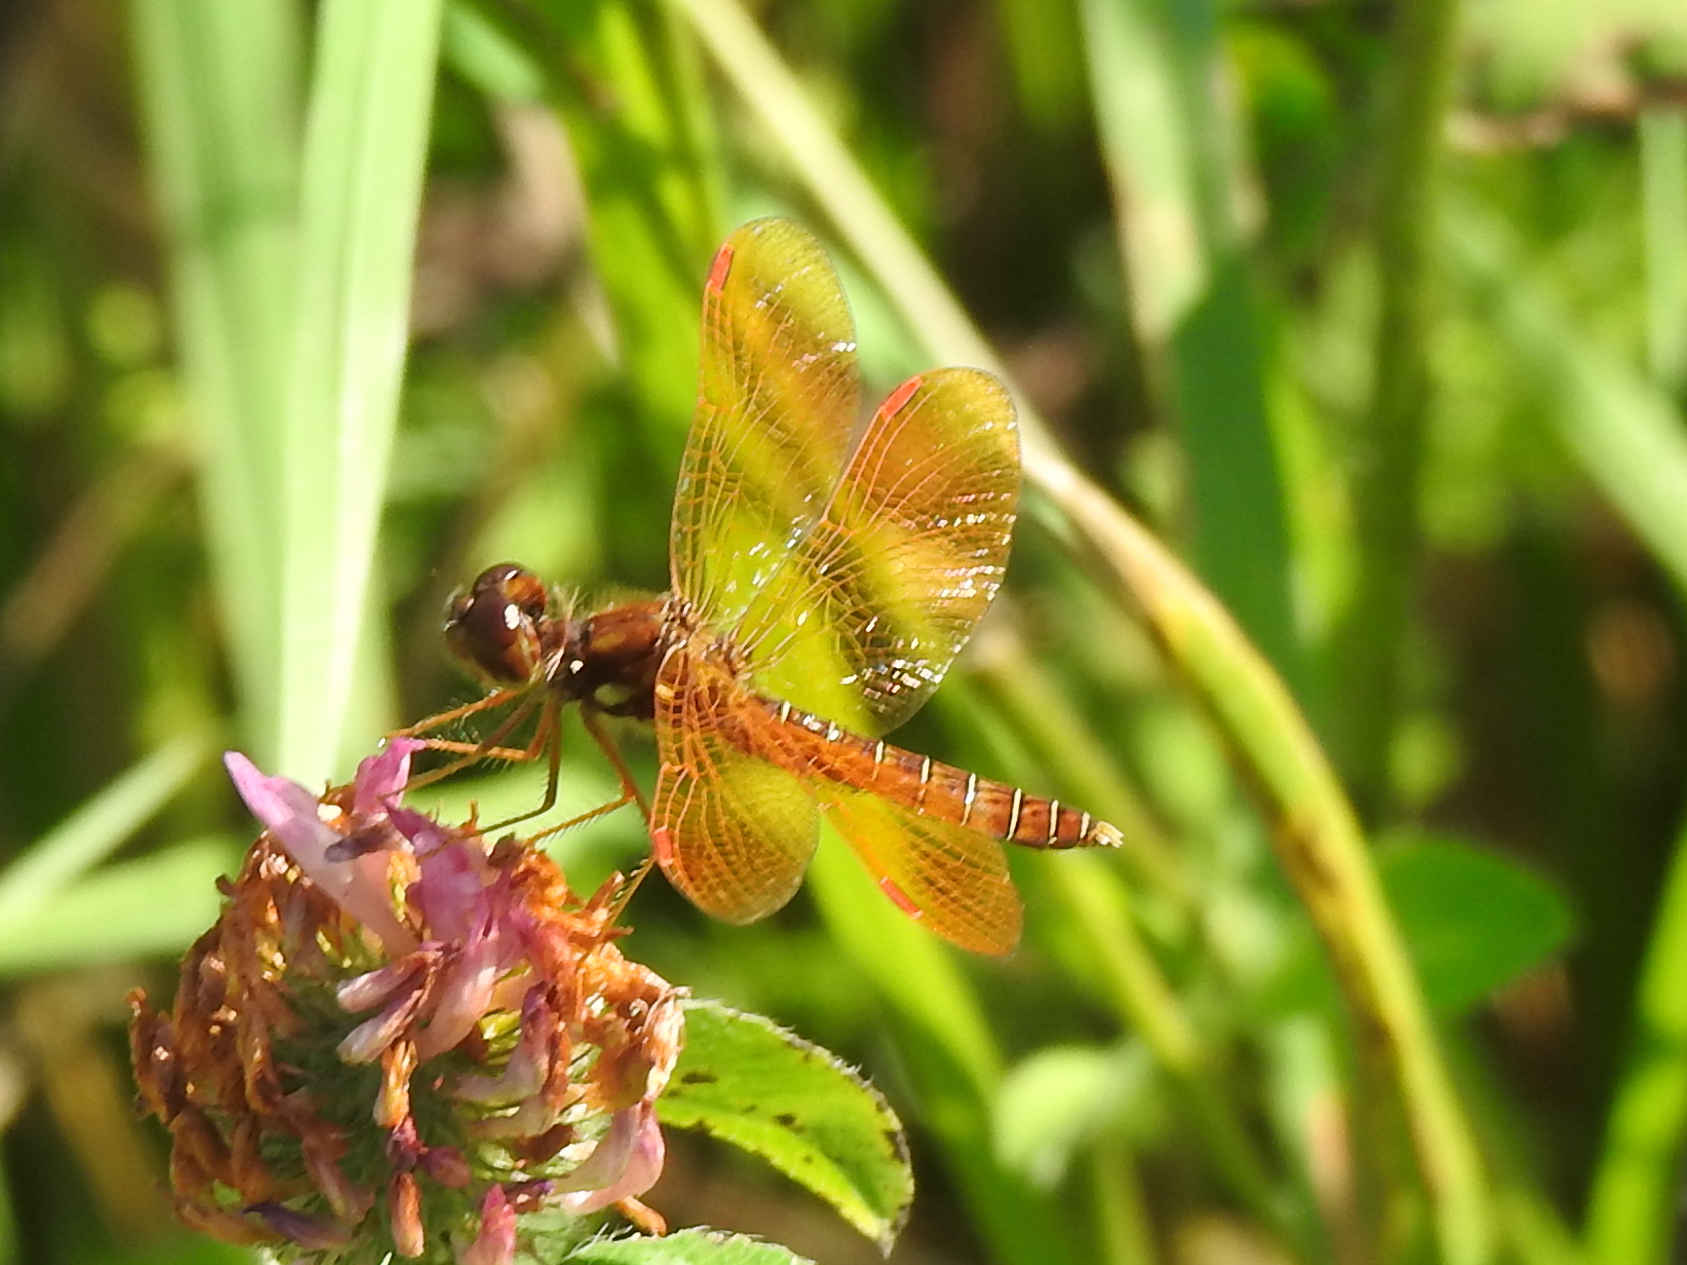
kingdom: Animalia
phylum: Arthropoda
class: Insecta
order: Odonata
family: Libellulidae
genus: Perithemis
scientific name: Perithemis tenera
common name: Eastern amberwing
